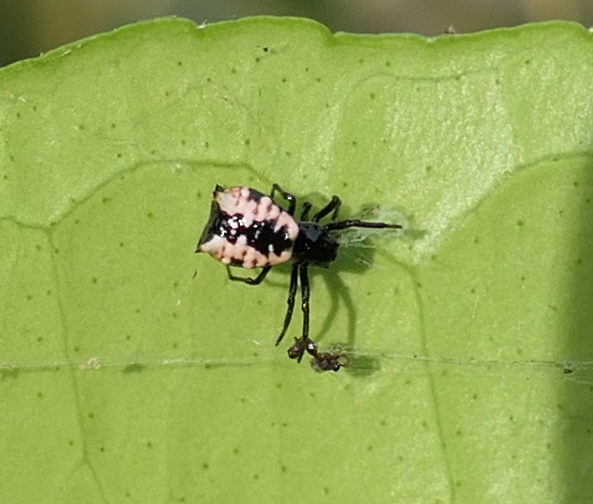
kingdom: Animalia
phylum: Arthropoda
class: Arachnida
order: Araneae
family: Araneidae
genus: Micrathena
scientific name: Micrathena patruelis
